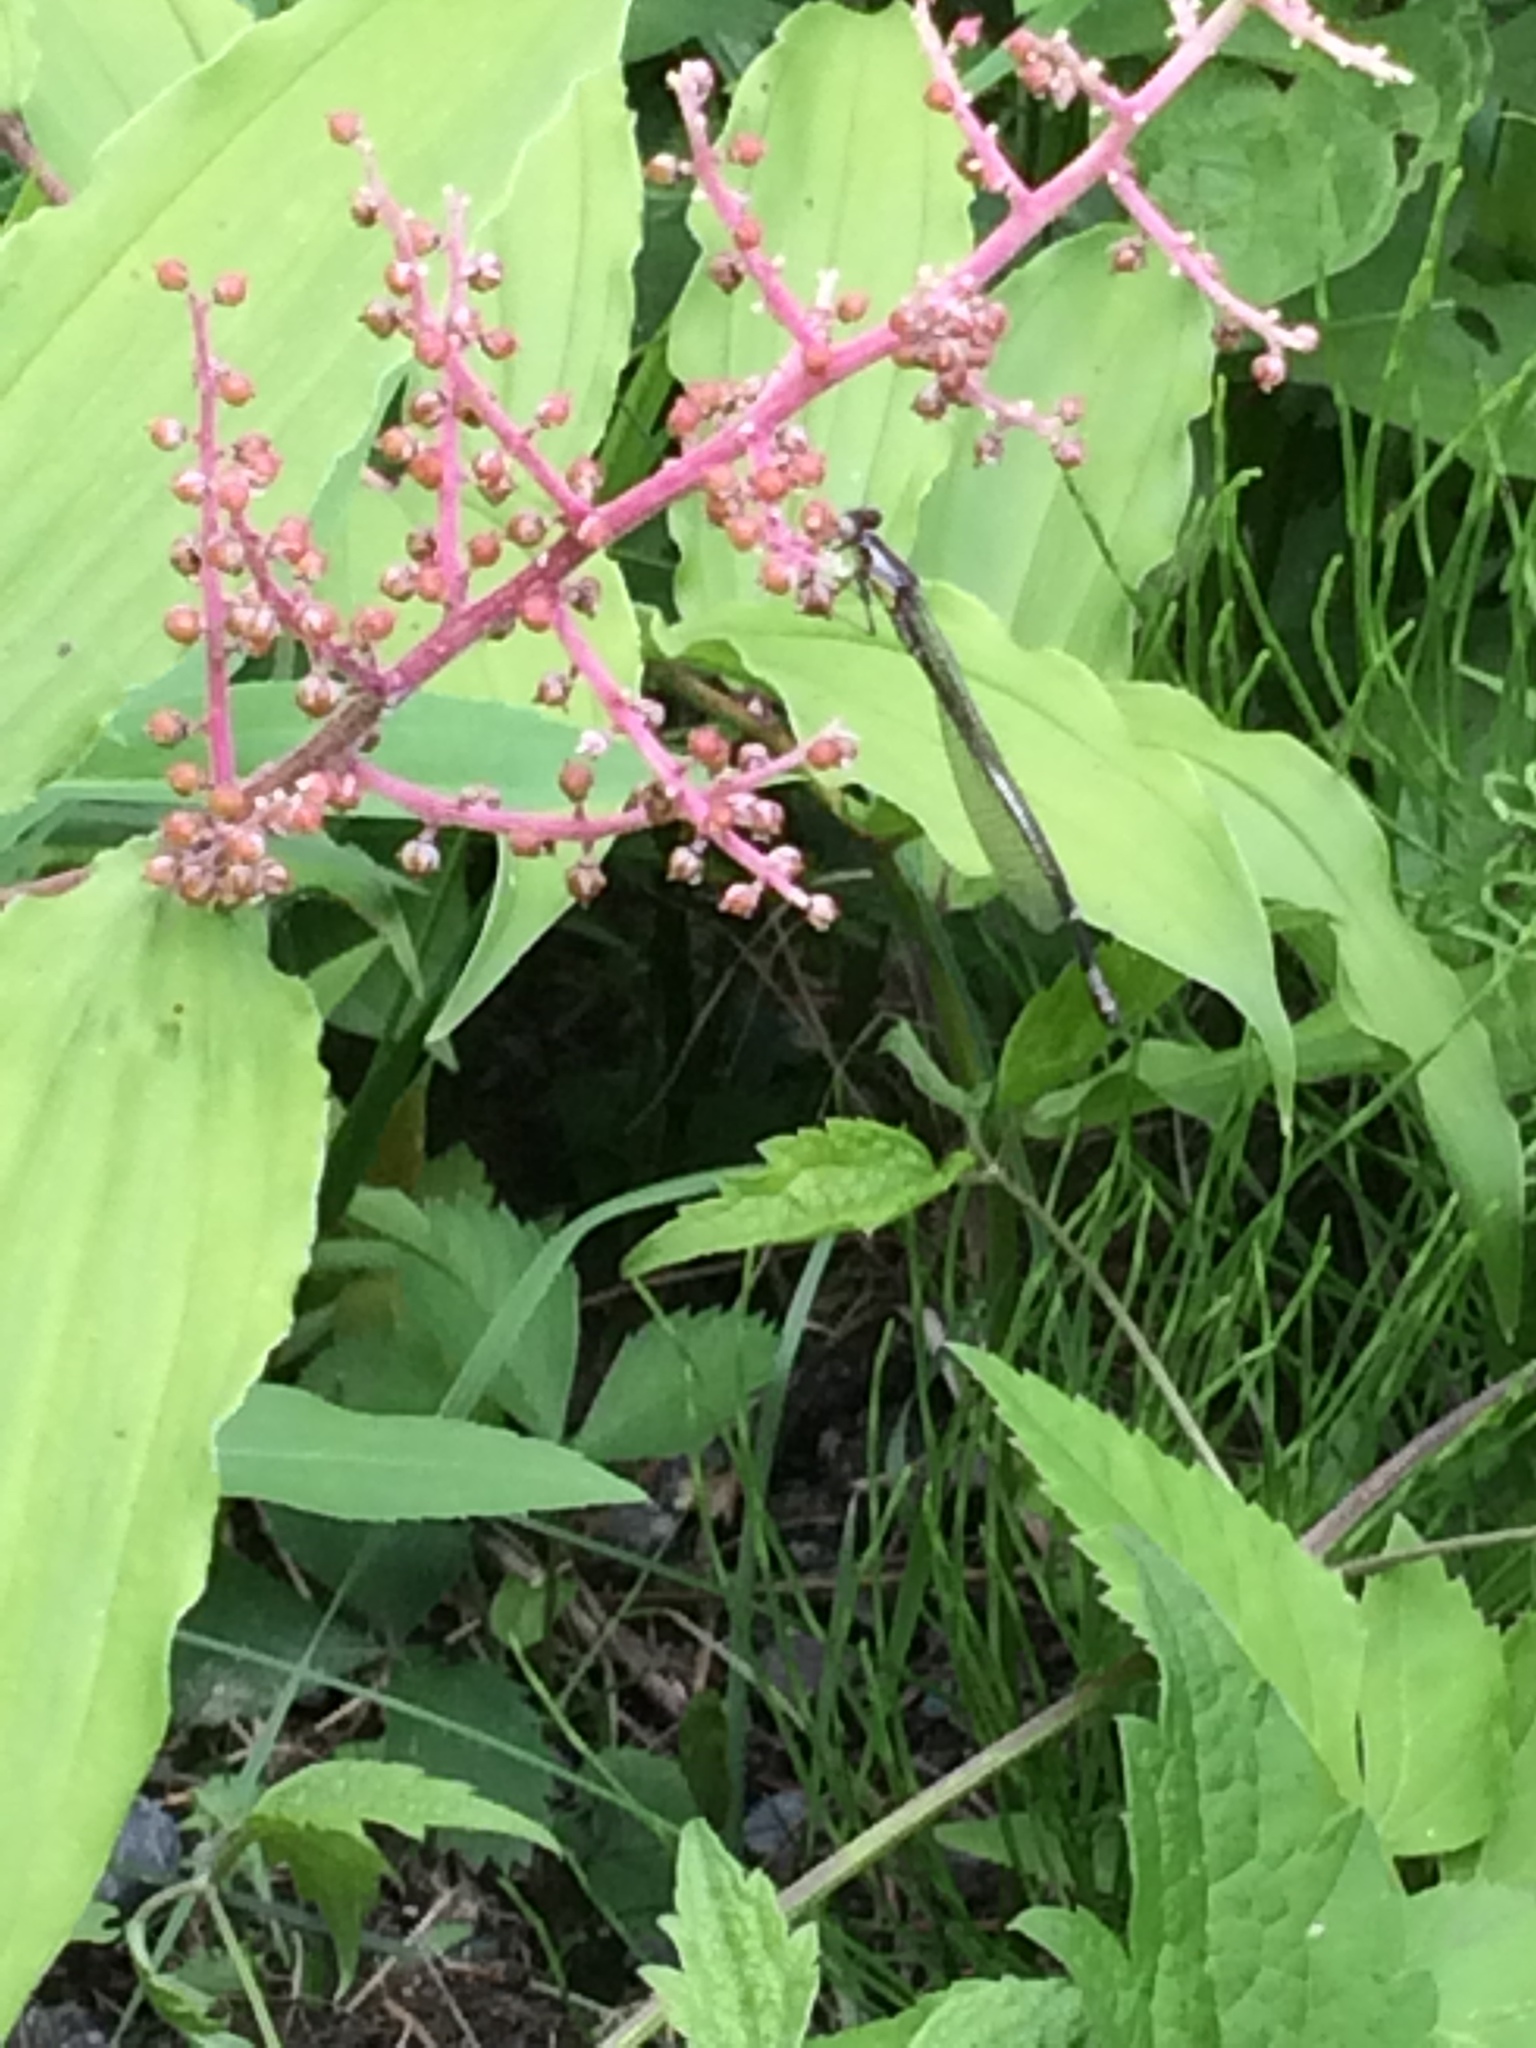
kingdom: Animalia
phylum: Arthropoda
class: Insecta
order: Odonata
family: Coenagrionidae
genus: Chromagrion
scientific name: Chromagrion conditum
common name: Aurora damsel
